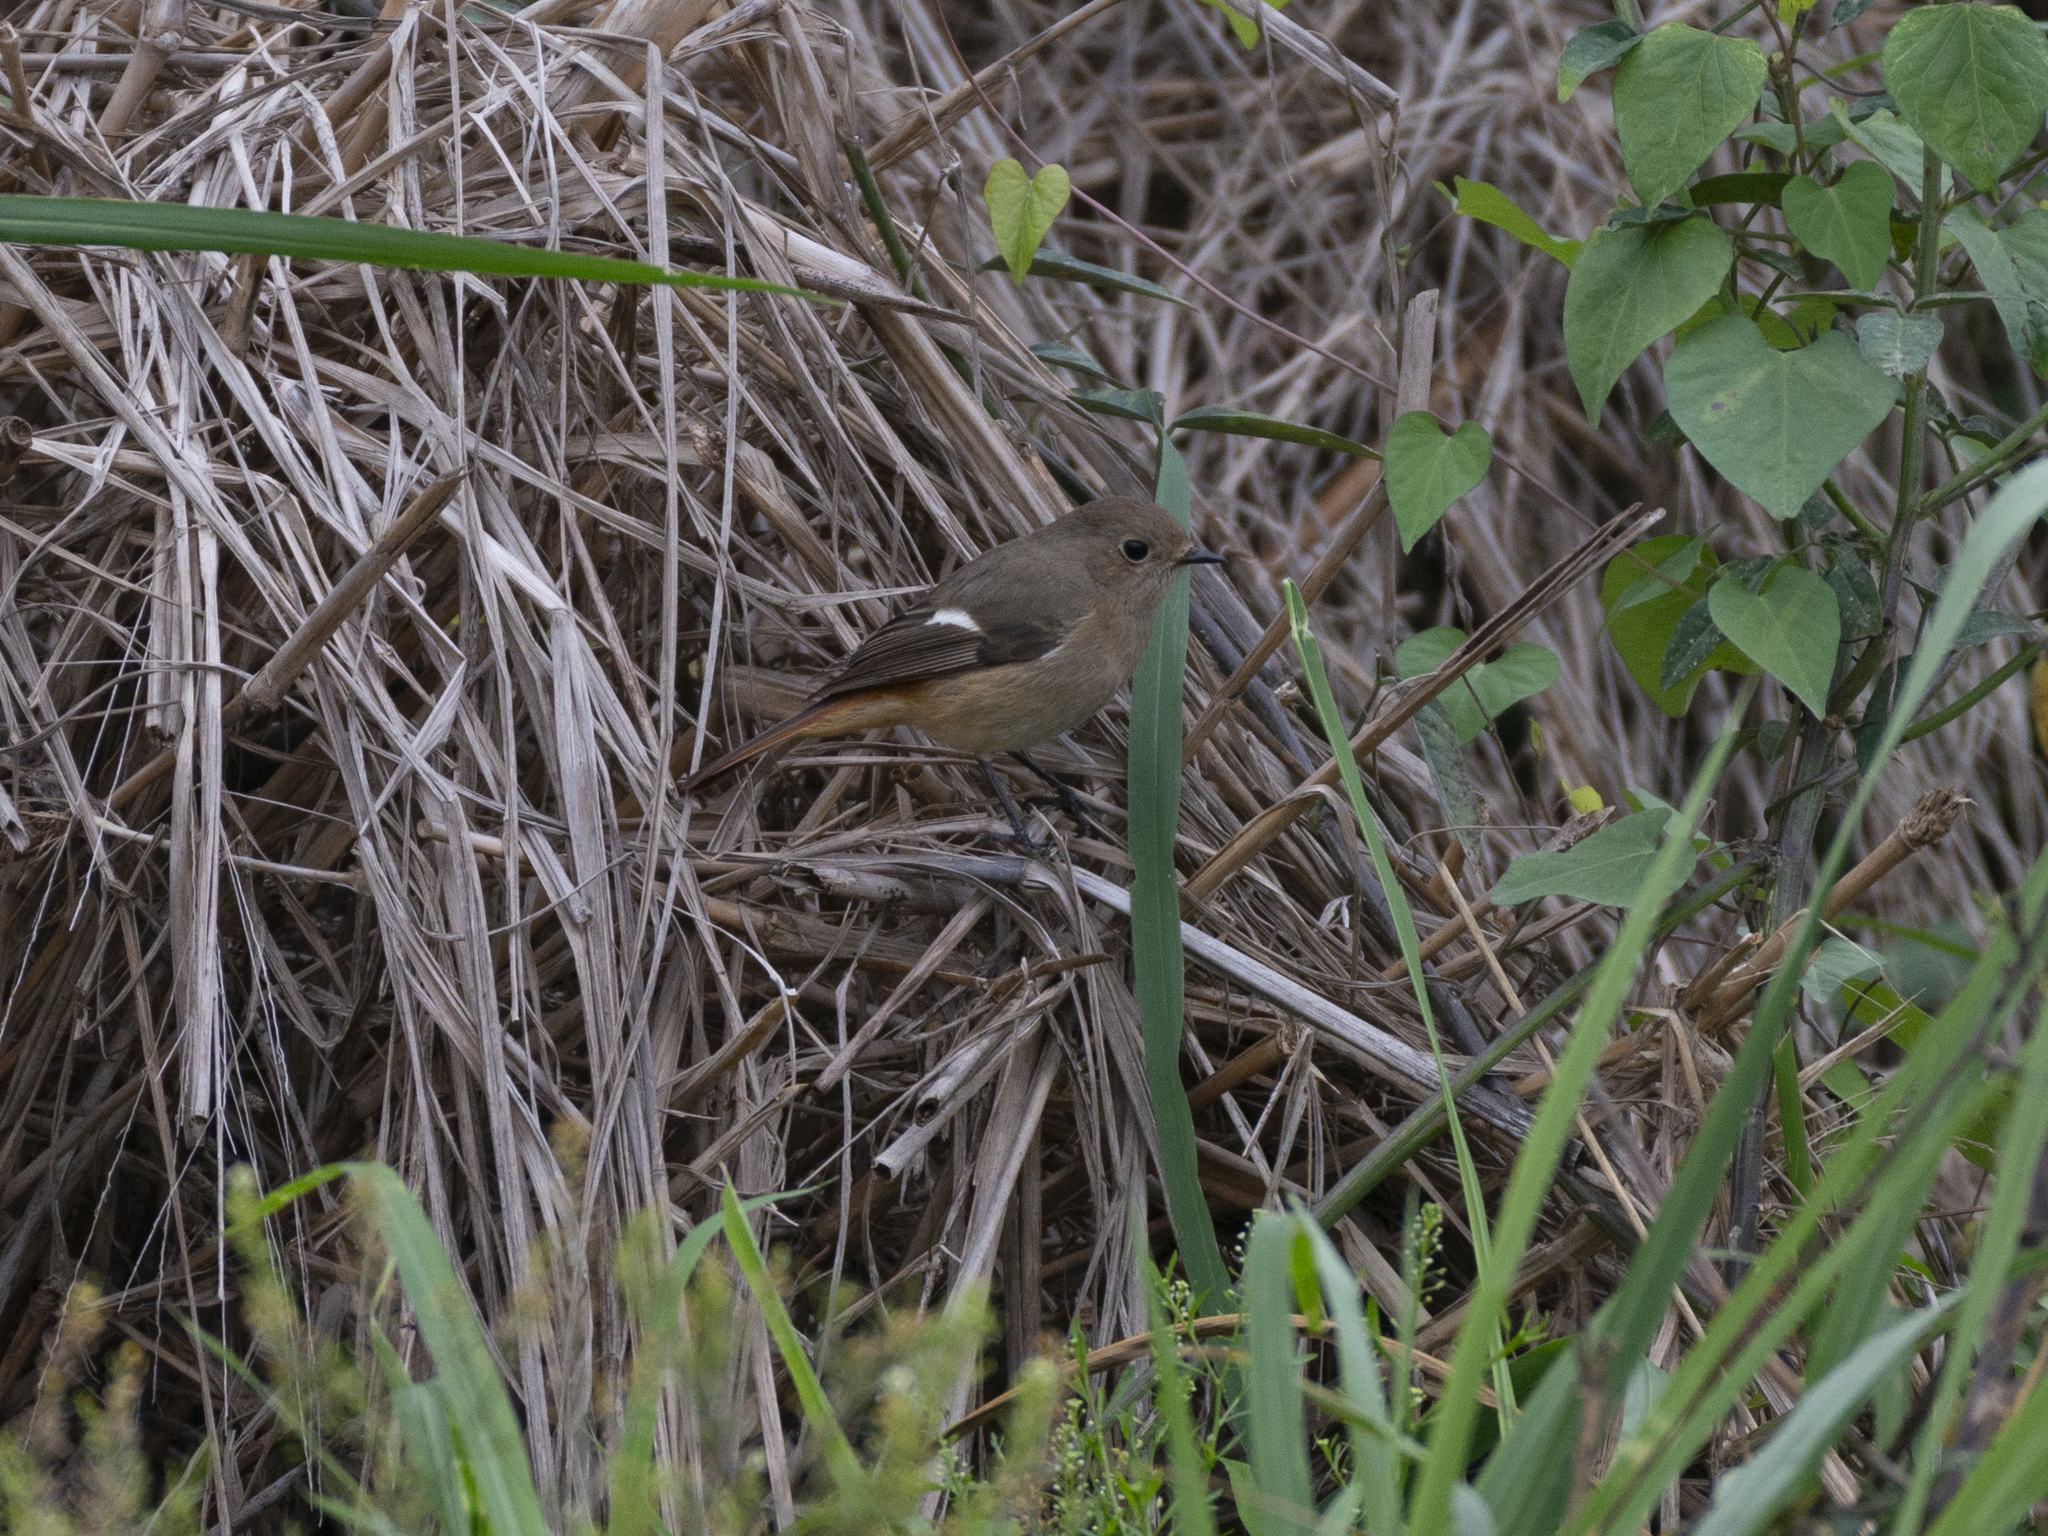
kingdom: Animalia
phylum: Chordata
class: Aves
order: Passeriformes
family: Muscicapidae
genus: Phoenicurus
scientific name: Phoenicurus auroreus
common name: Daurian redstart
